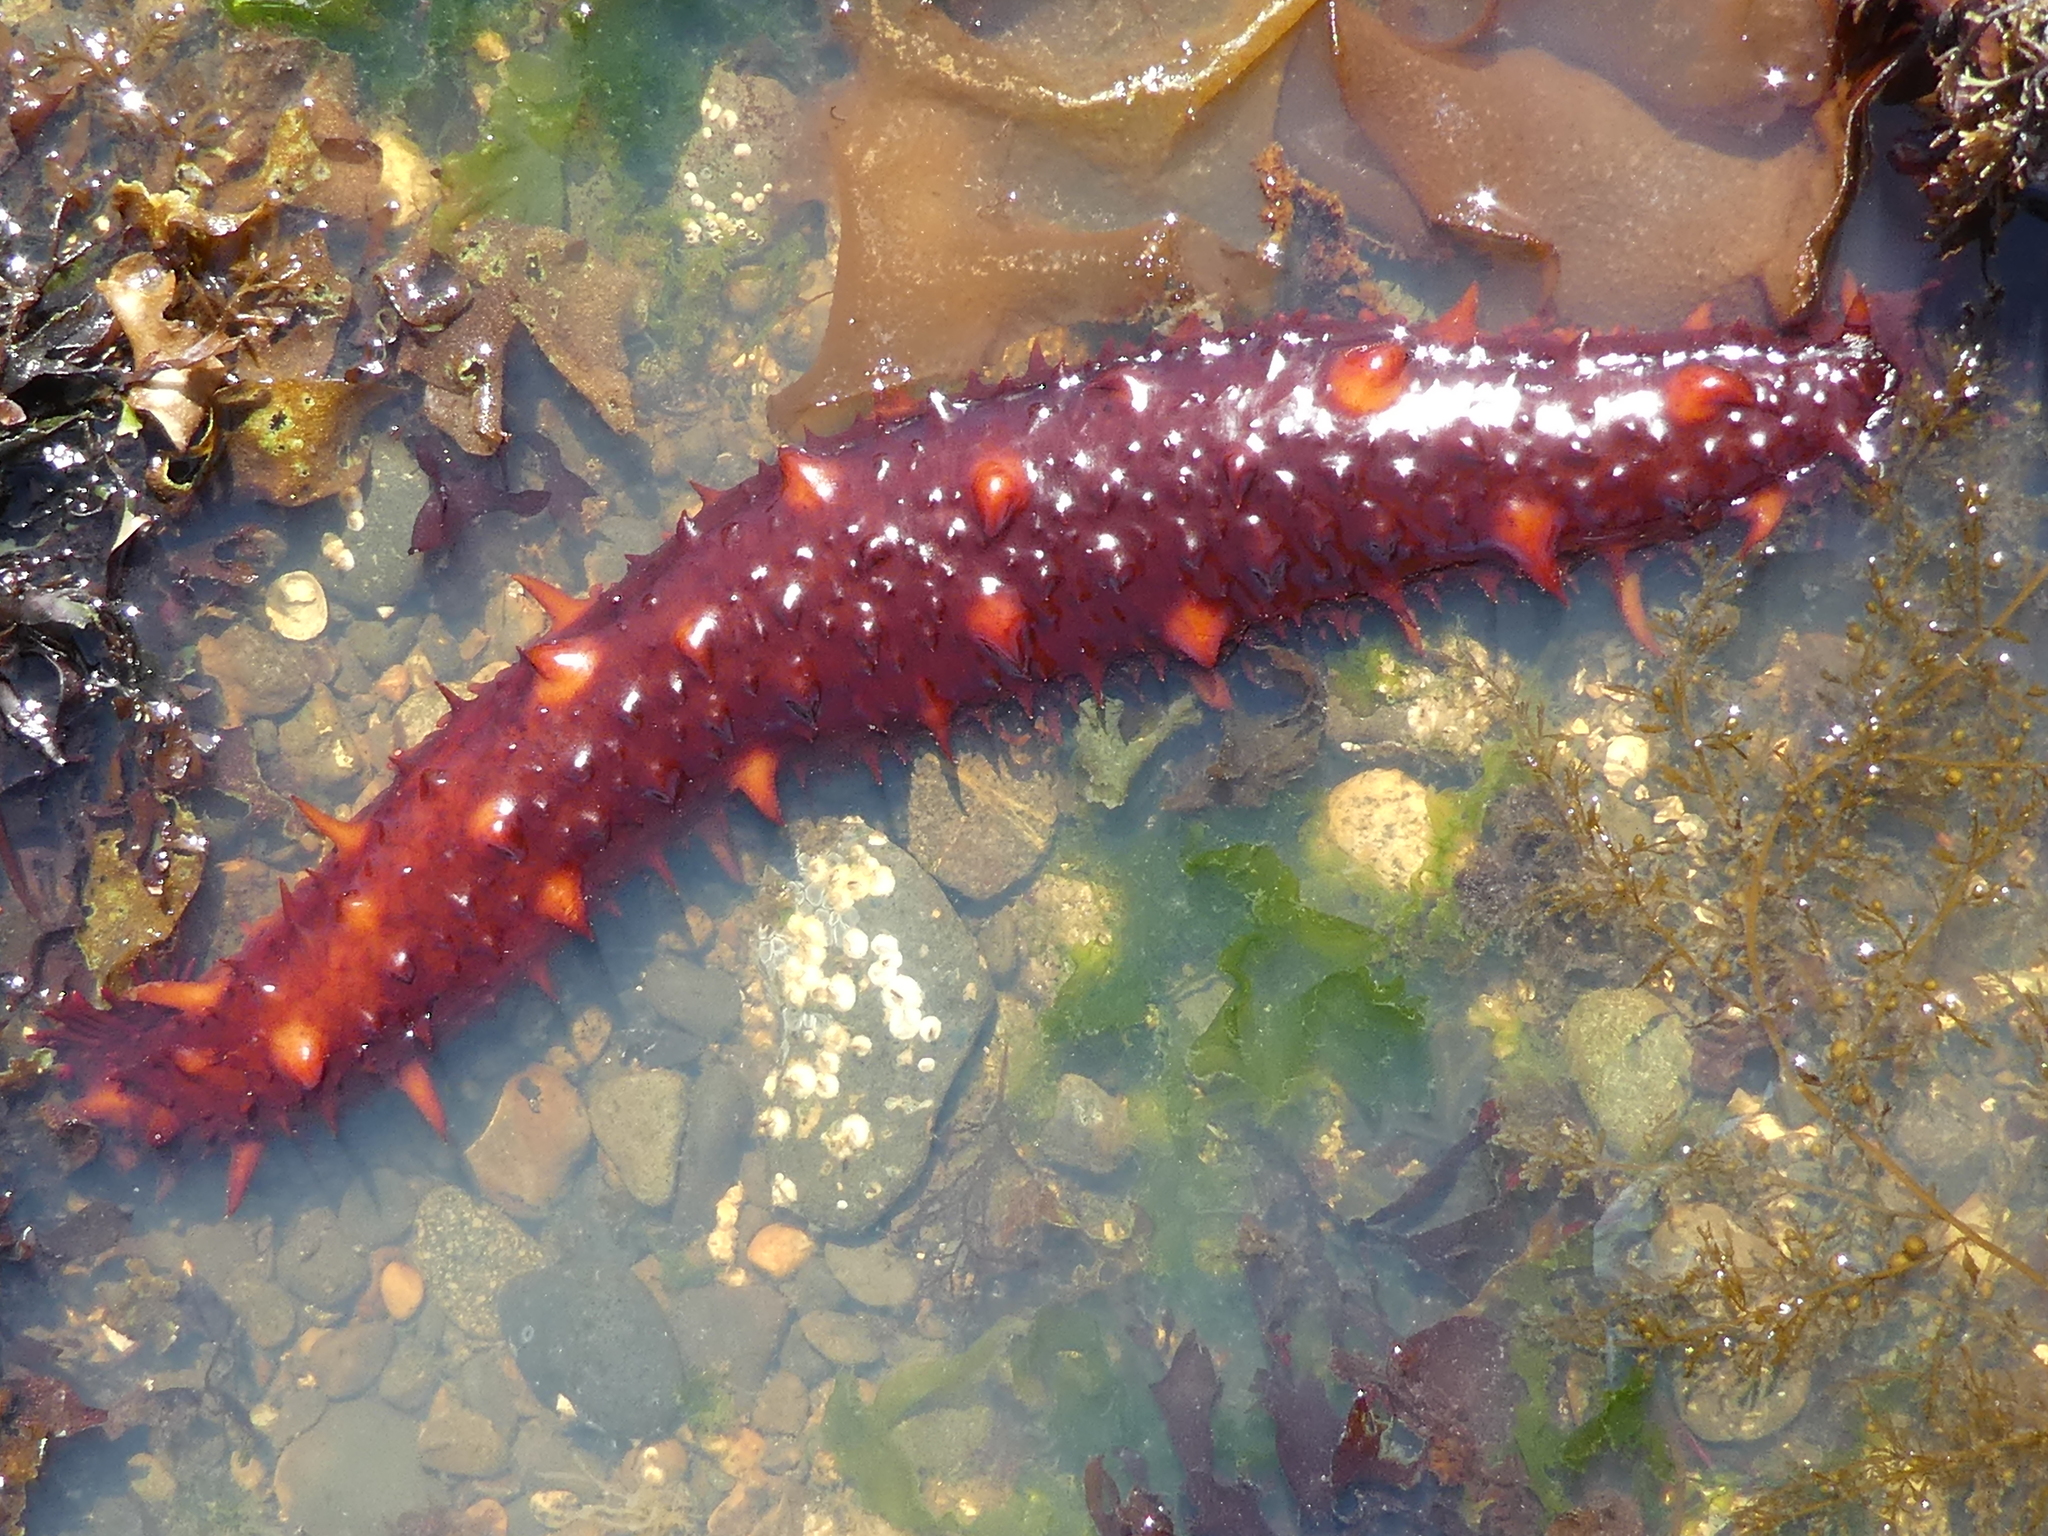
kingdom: Animalia
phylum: Echinodermata
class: Holothuroidea
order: Synallactida
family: Stichopodidae
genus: Apostichopus
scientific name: Apostichopus californicus
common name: California sea cucumber
